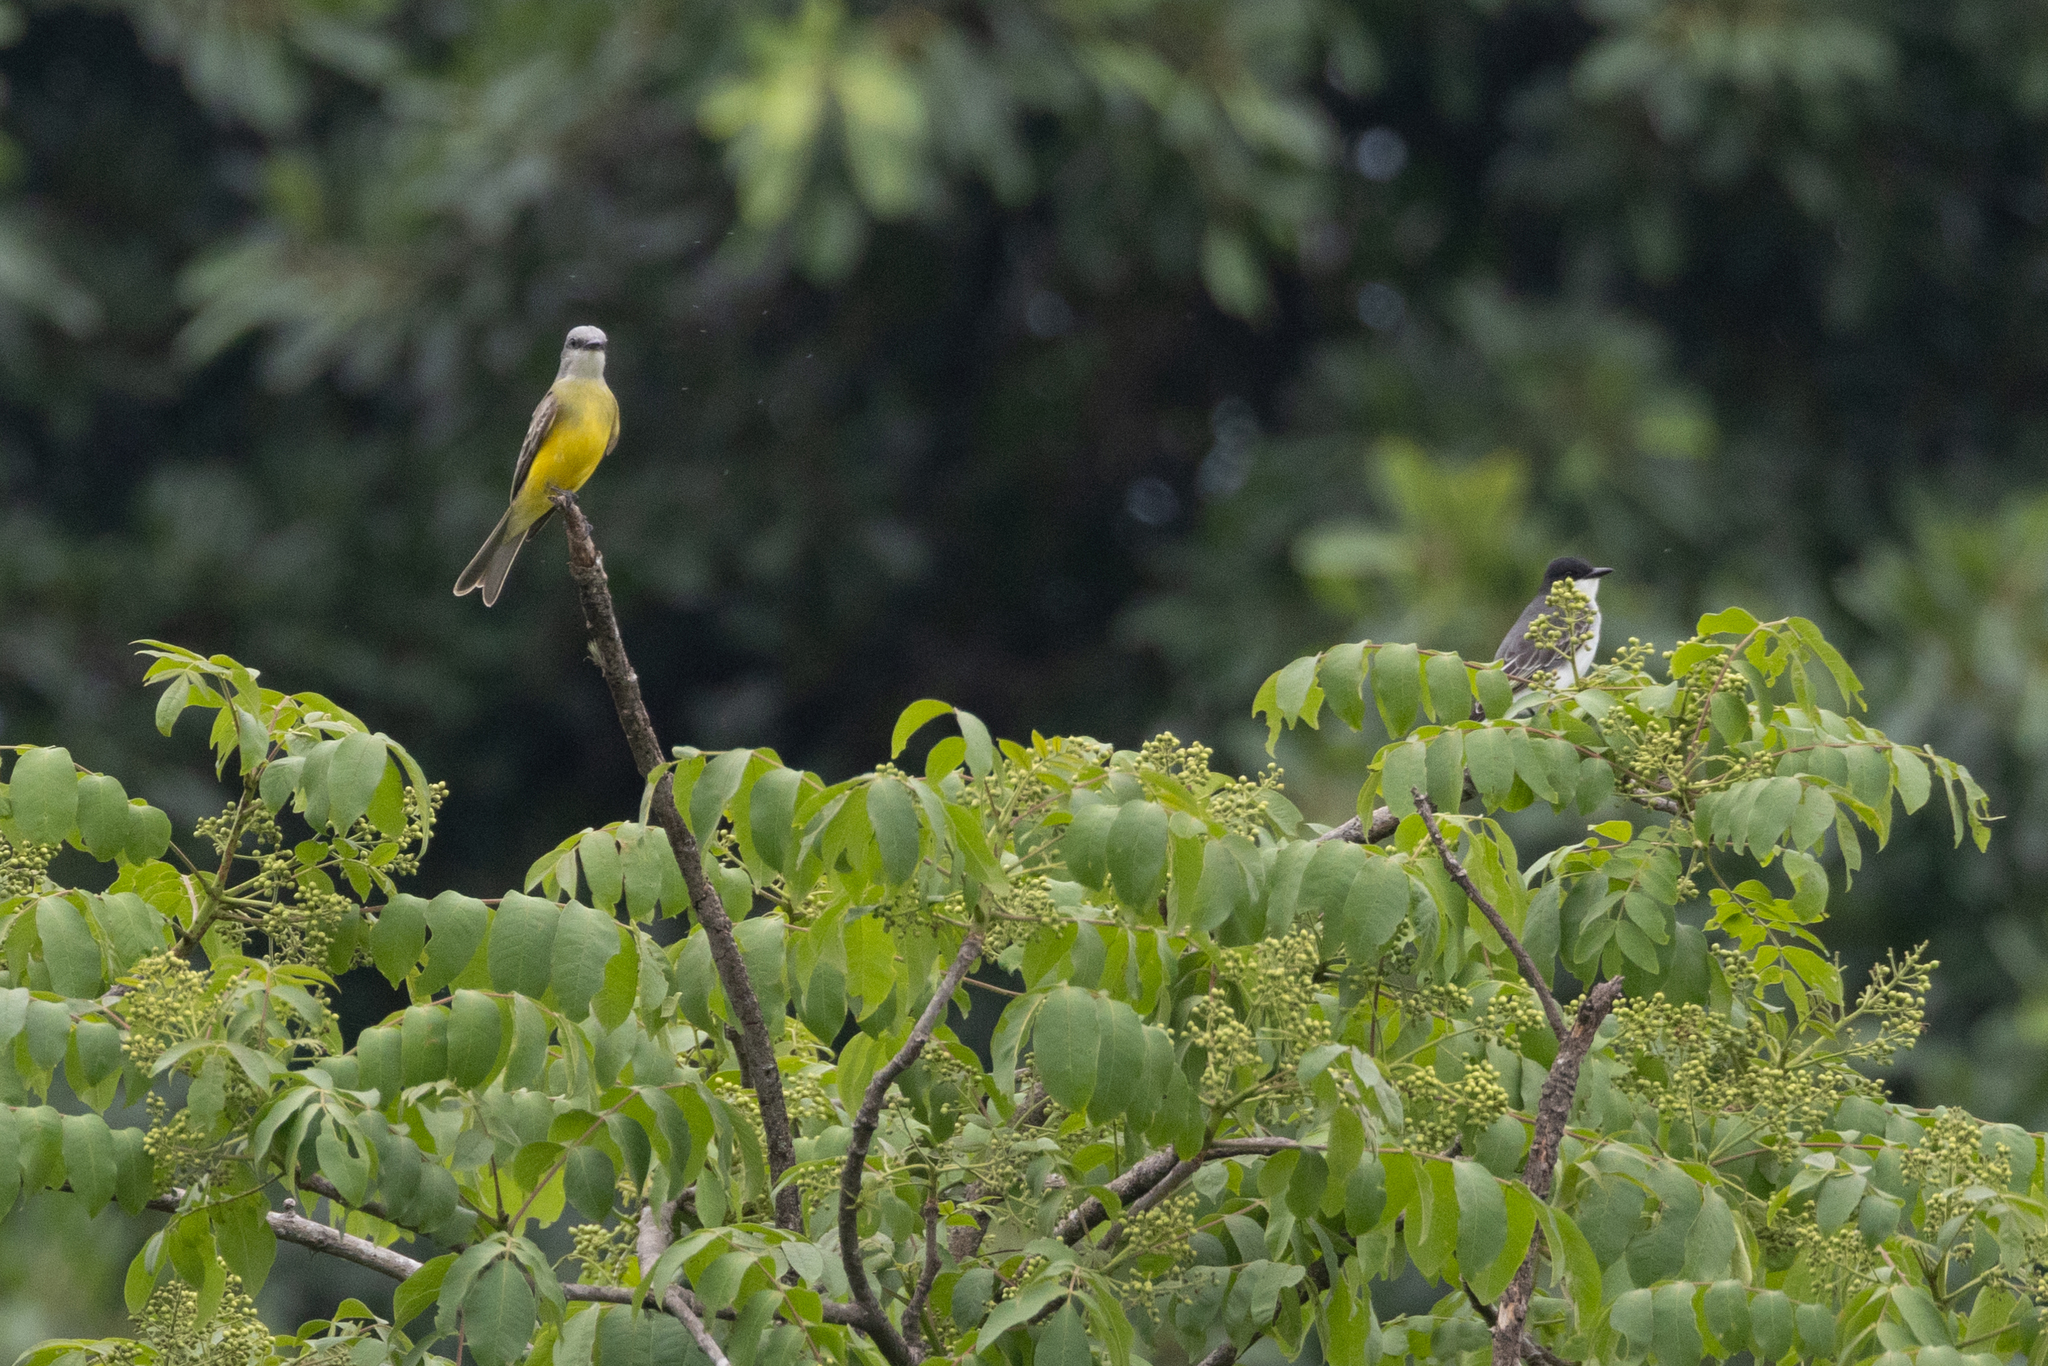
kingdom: Animalia
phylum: Chordata
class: Aves
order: Passeriformes
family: Tyrannidae
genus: Tyrannus
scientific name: Tyrannus melancholicus
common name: Tropical kingbird
